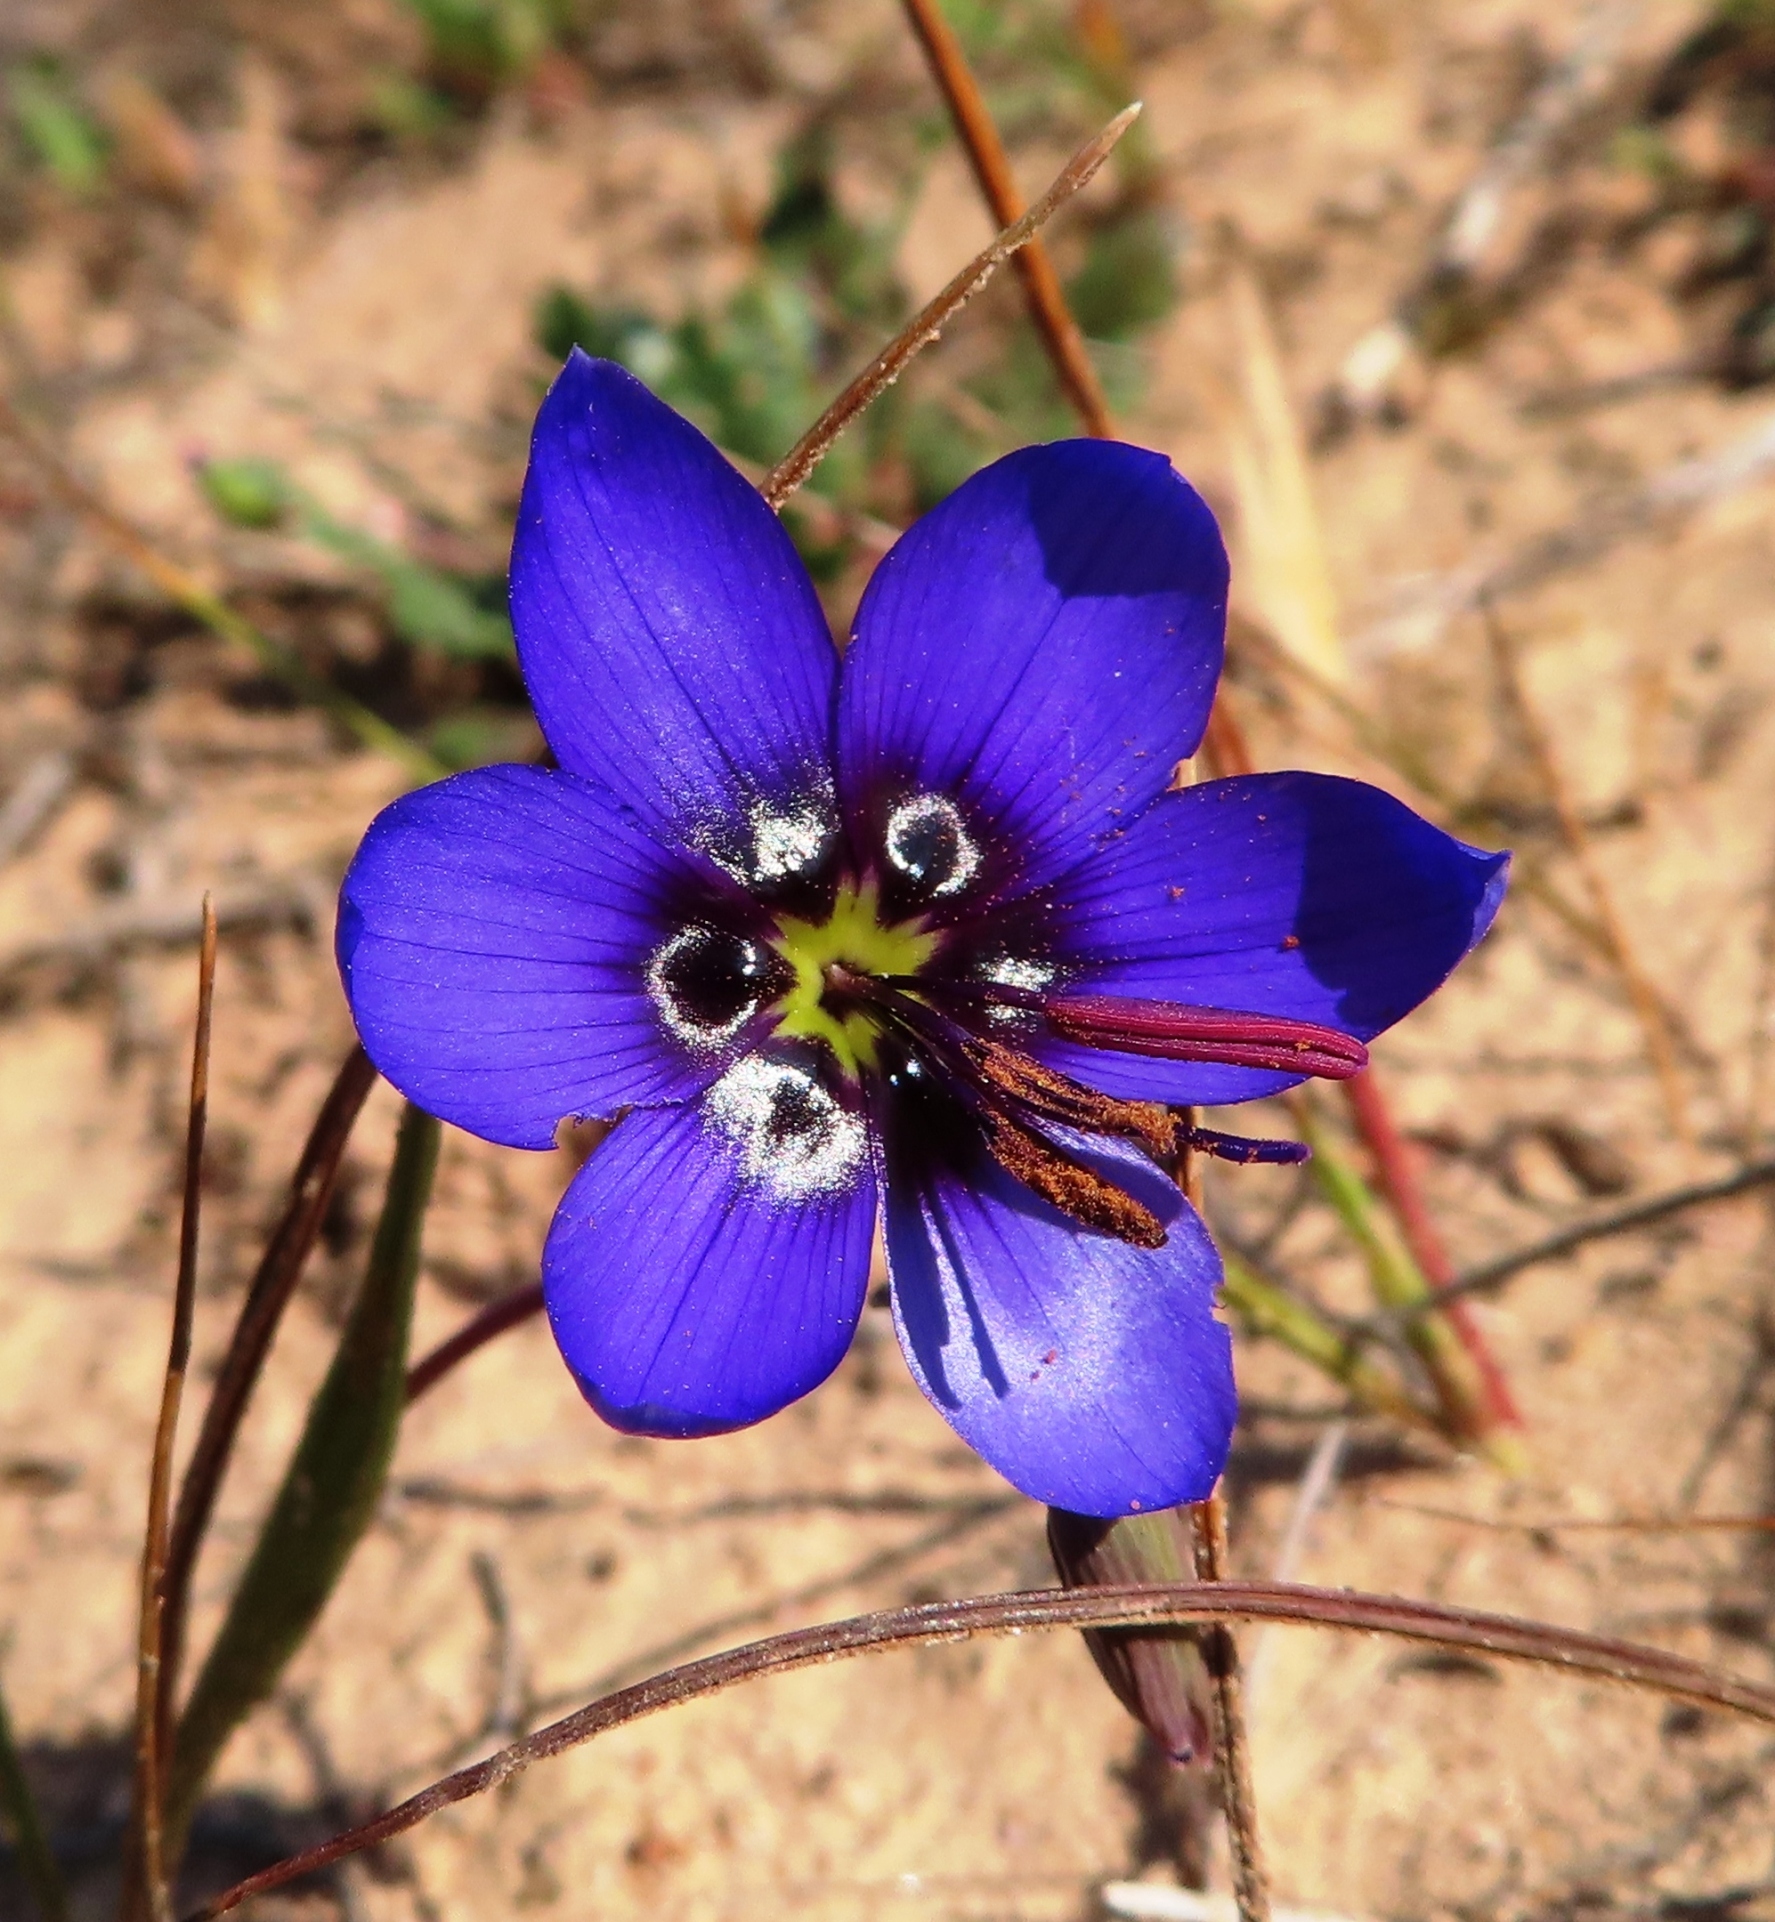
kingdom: Plantae
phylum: Tracheophyta
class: Liliopsida
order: Asparagales
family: Iridaceae
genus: Geissorhiza
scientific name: Geissorhiza splendidissima
